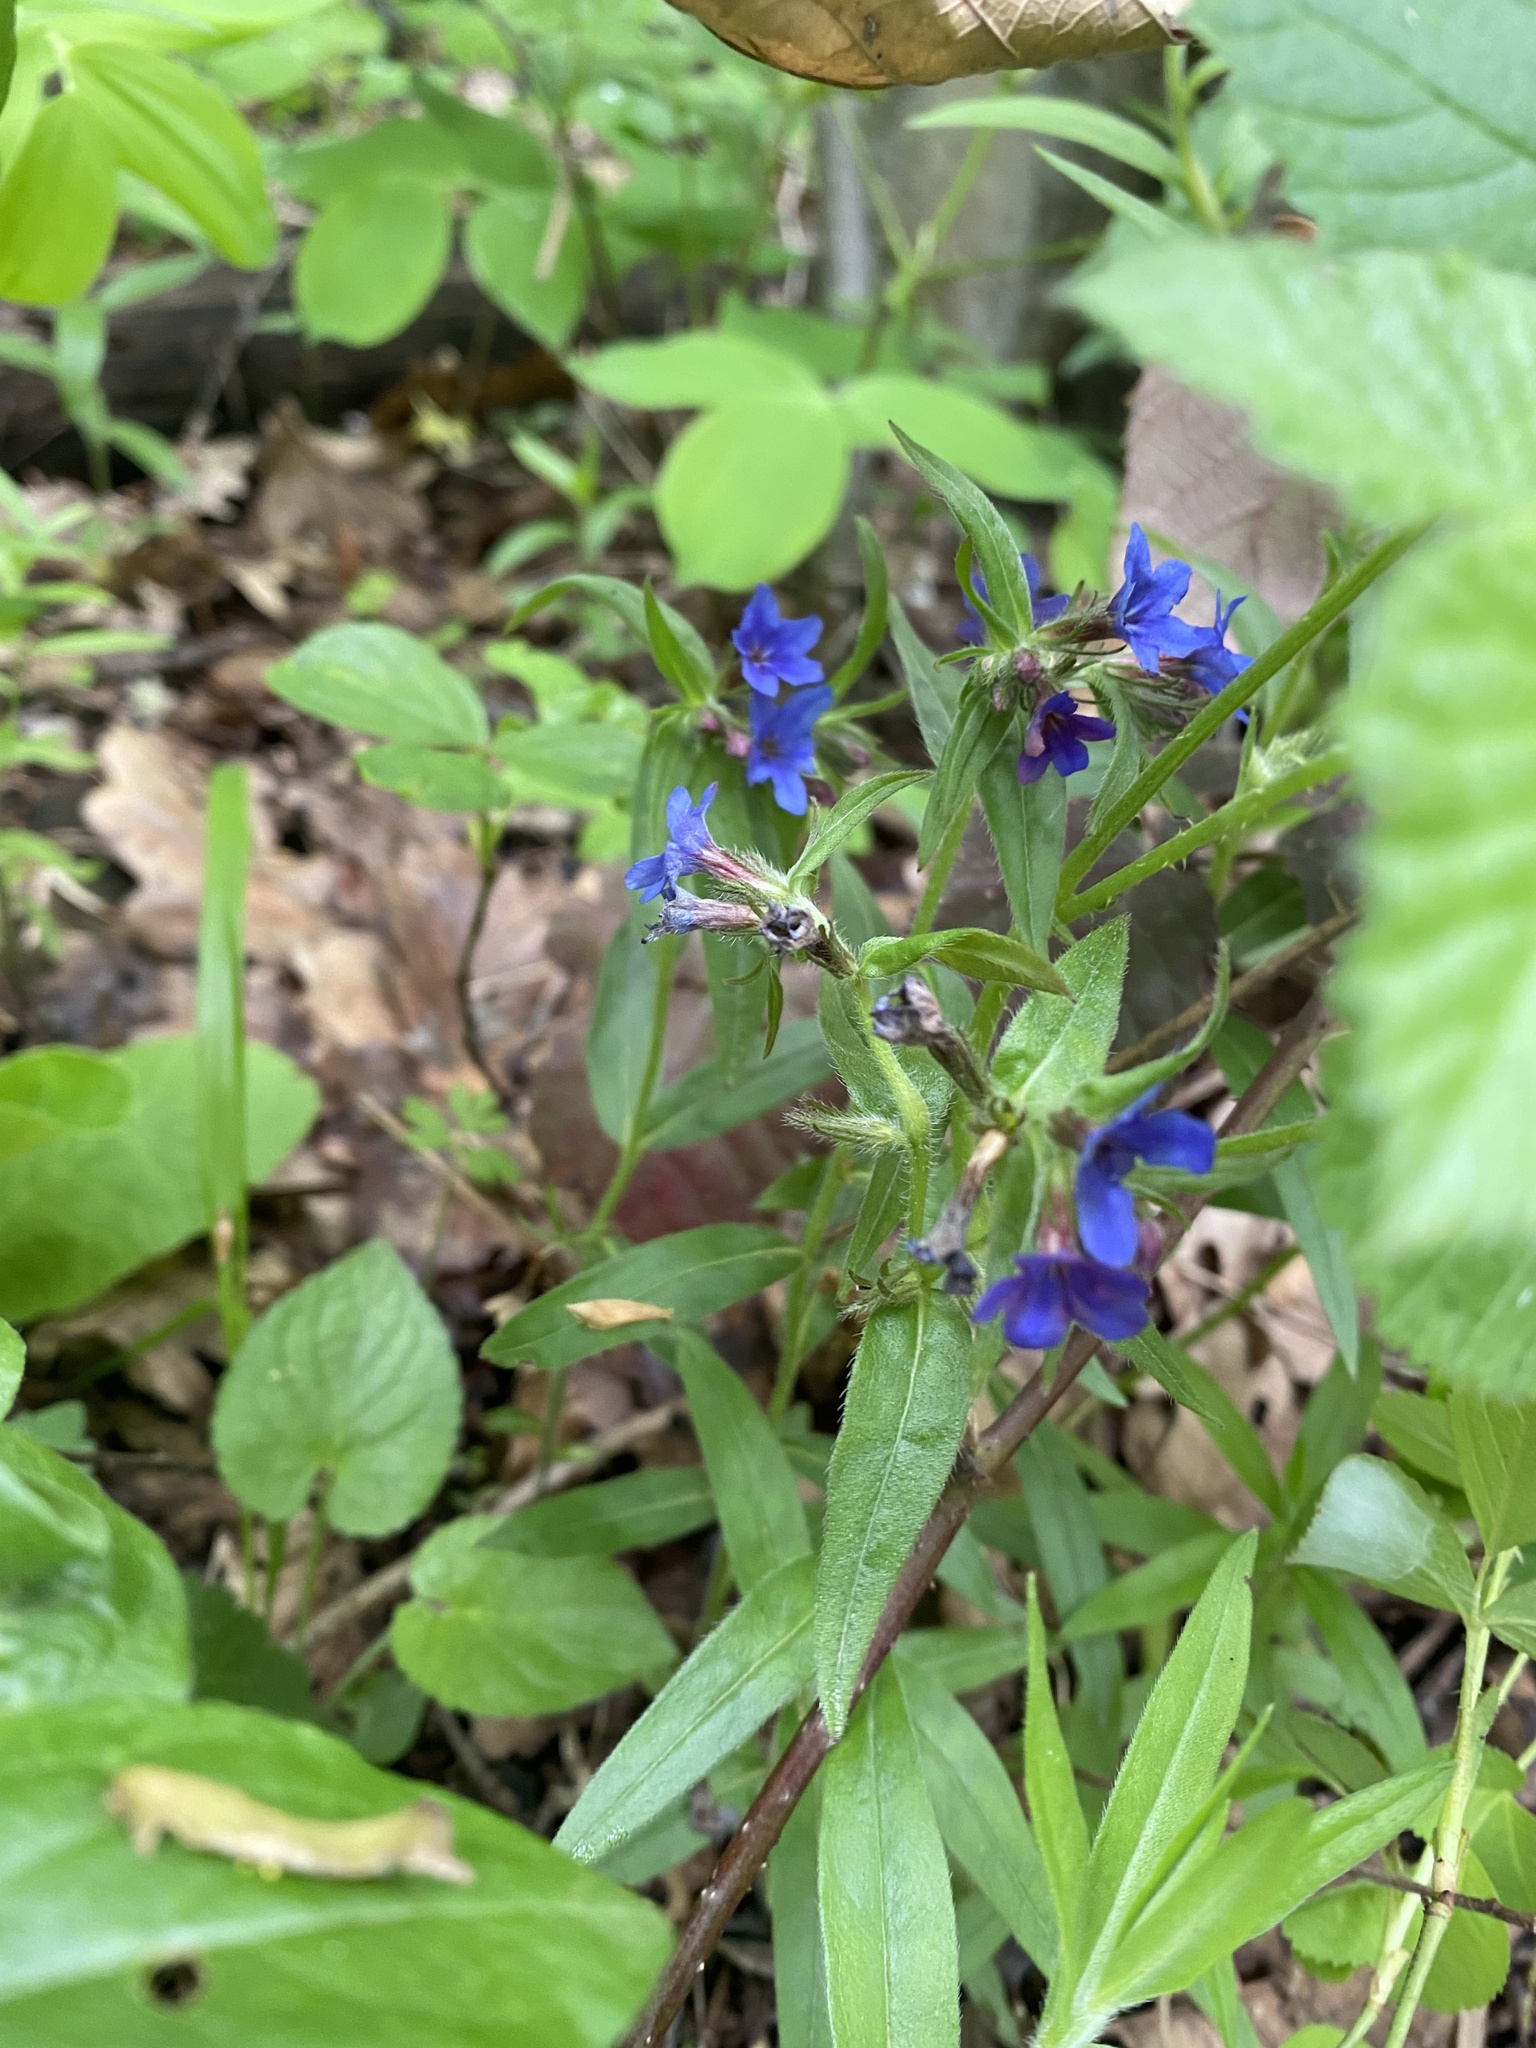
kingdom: Plantae
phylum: Tracheophyta
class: Magnoliopsida
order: Boraginales
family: Boraginaceae
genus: Aegonychon
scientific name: Aegonychon purpurocaeruleum
